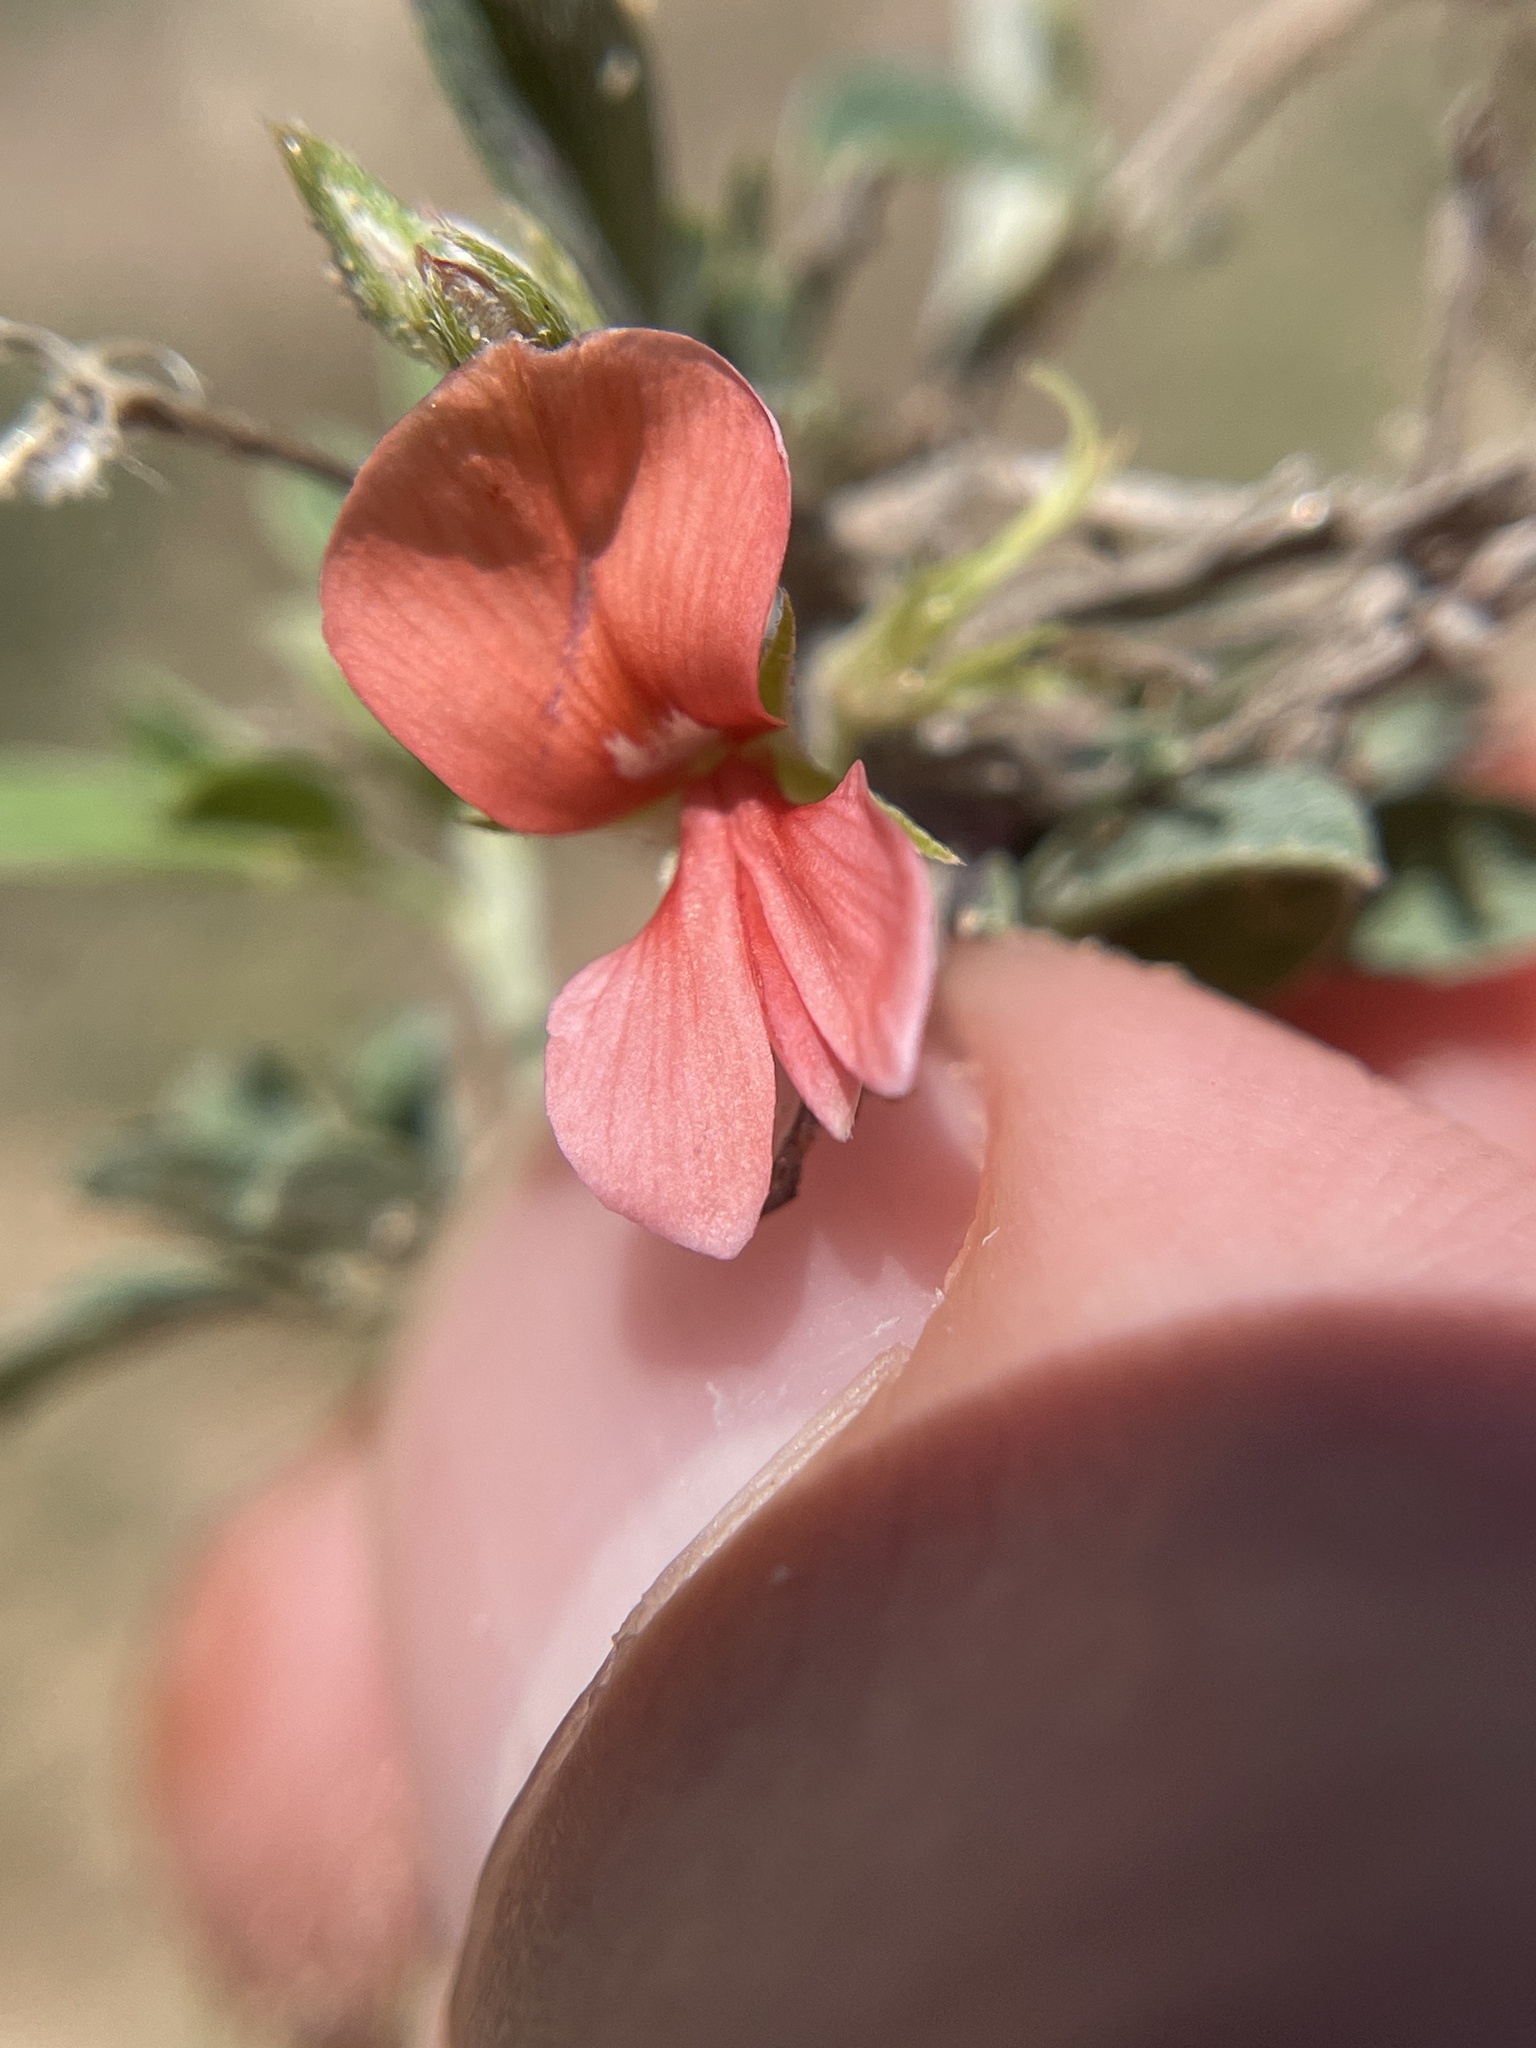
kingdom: Plantae
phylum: Tracheophyta
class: Magnoliopsida
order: Fabales
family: Fabaceae
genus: Indigofera
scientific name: Indigofera miniata
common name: Coast indigo
